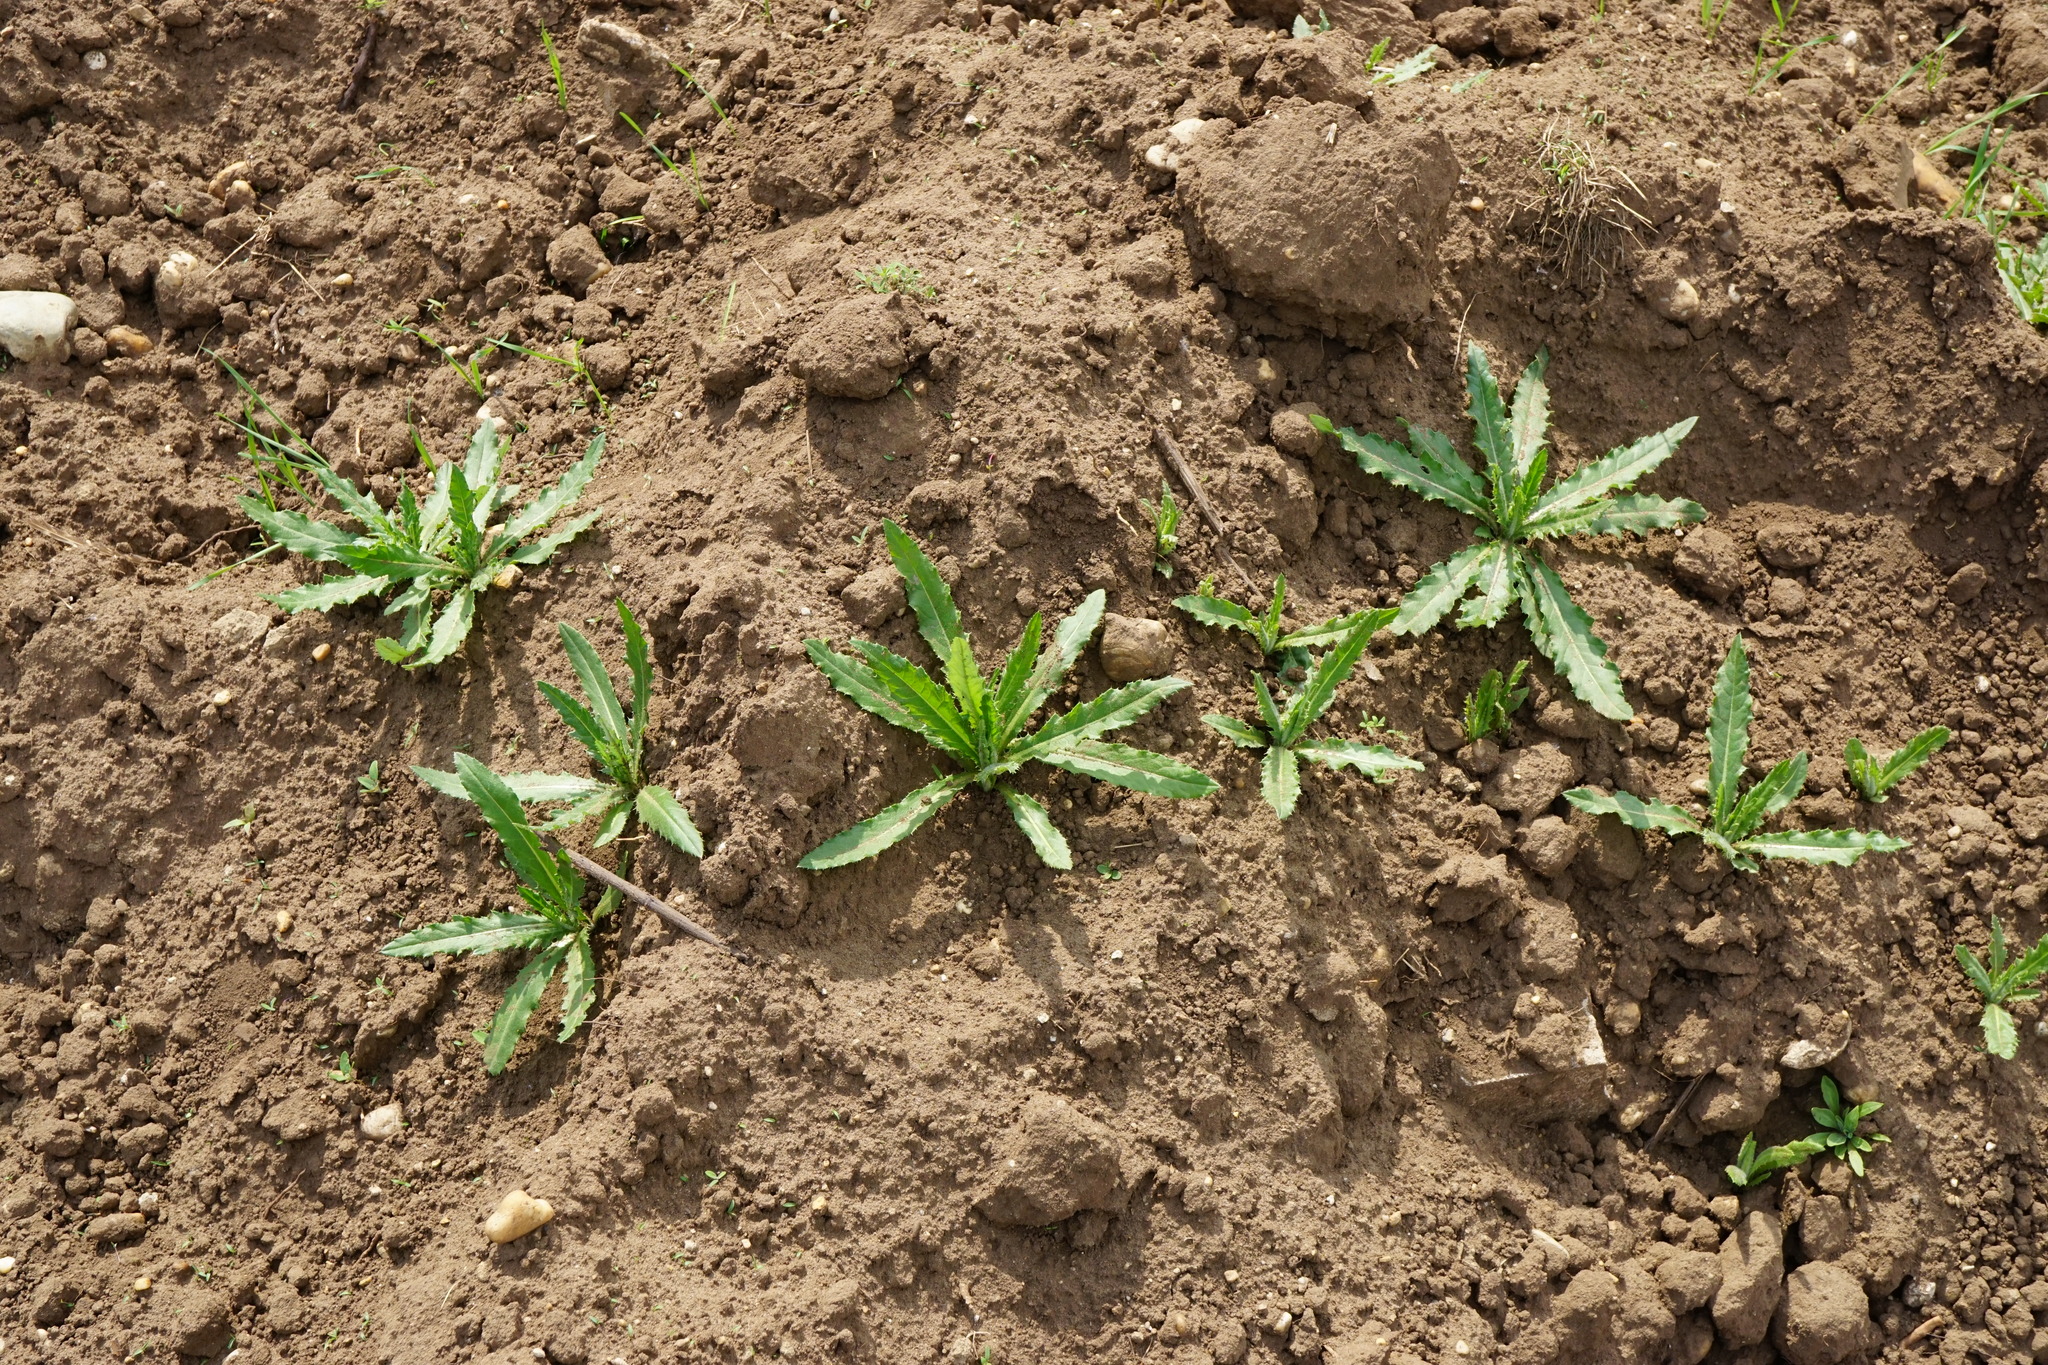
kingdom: Plantae
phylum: Tracheophyta
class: Magnoliopsida
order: Asterales
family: Asteraceae
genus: Cirsium
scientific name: Cirsium arvense
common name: Creeping thistle
